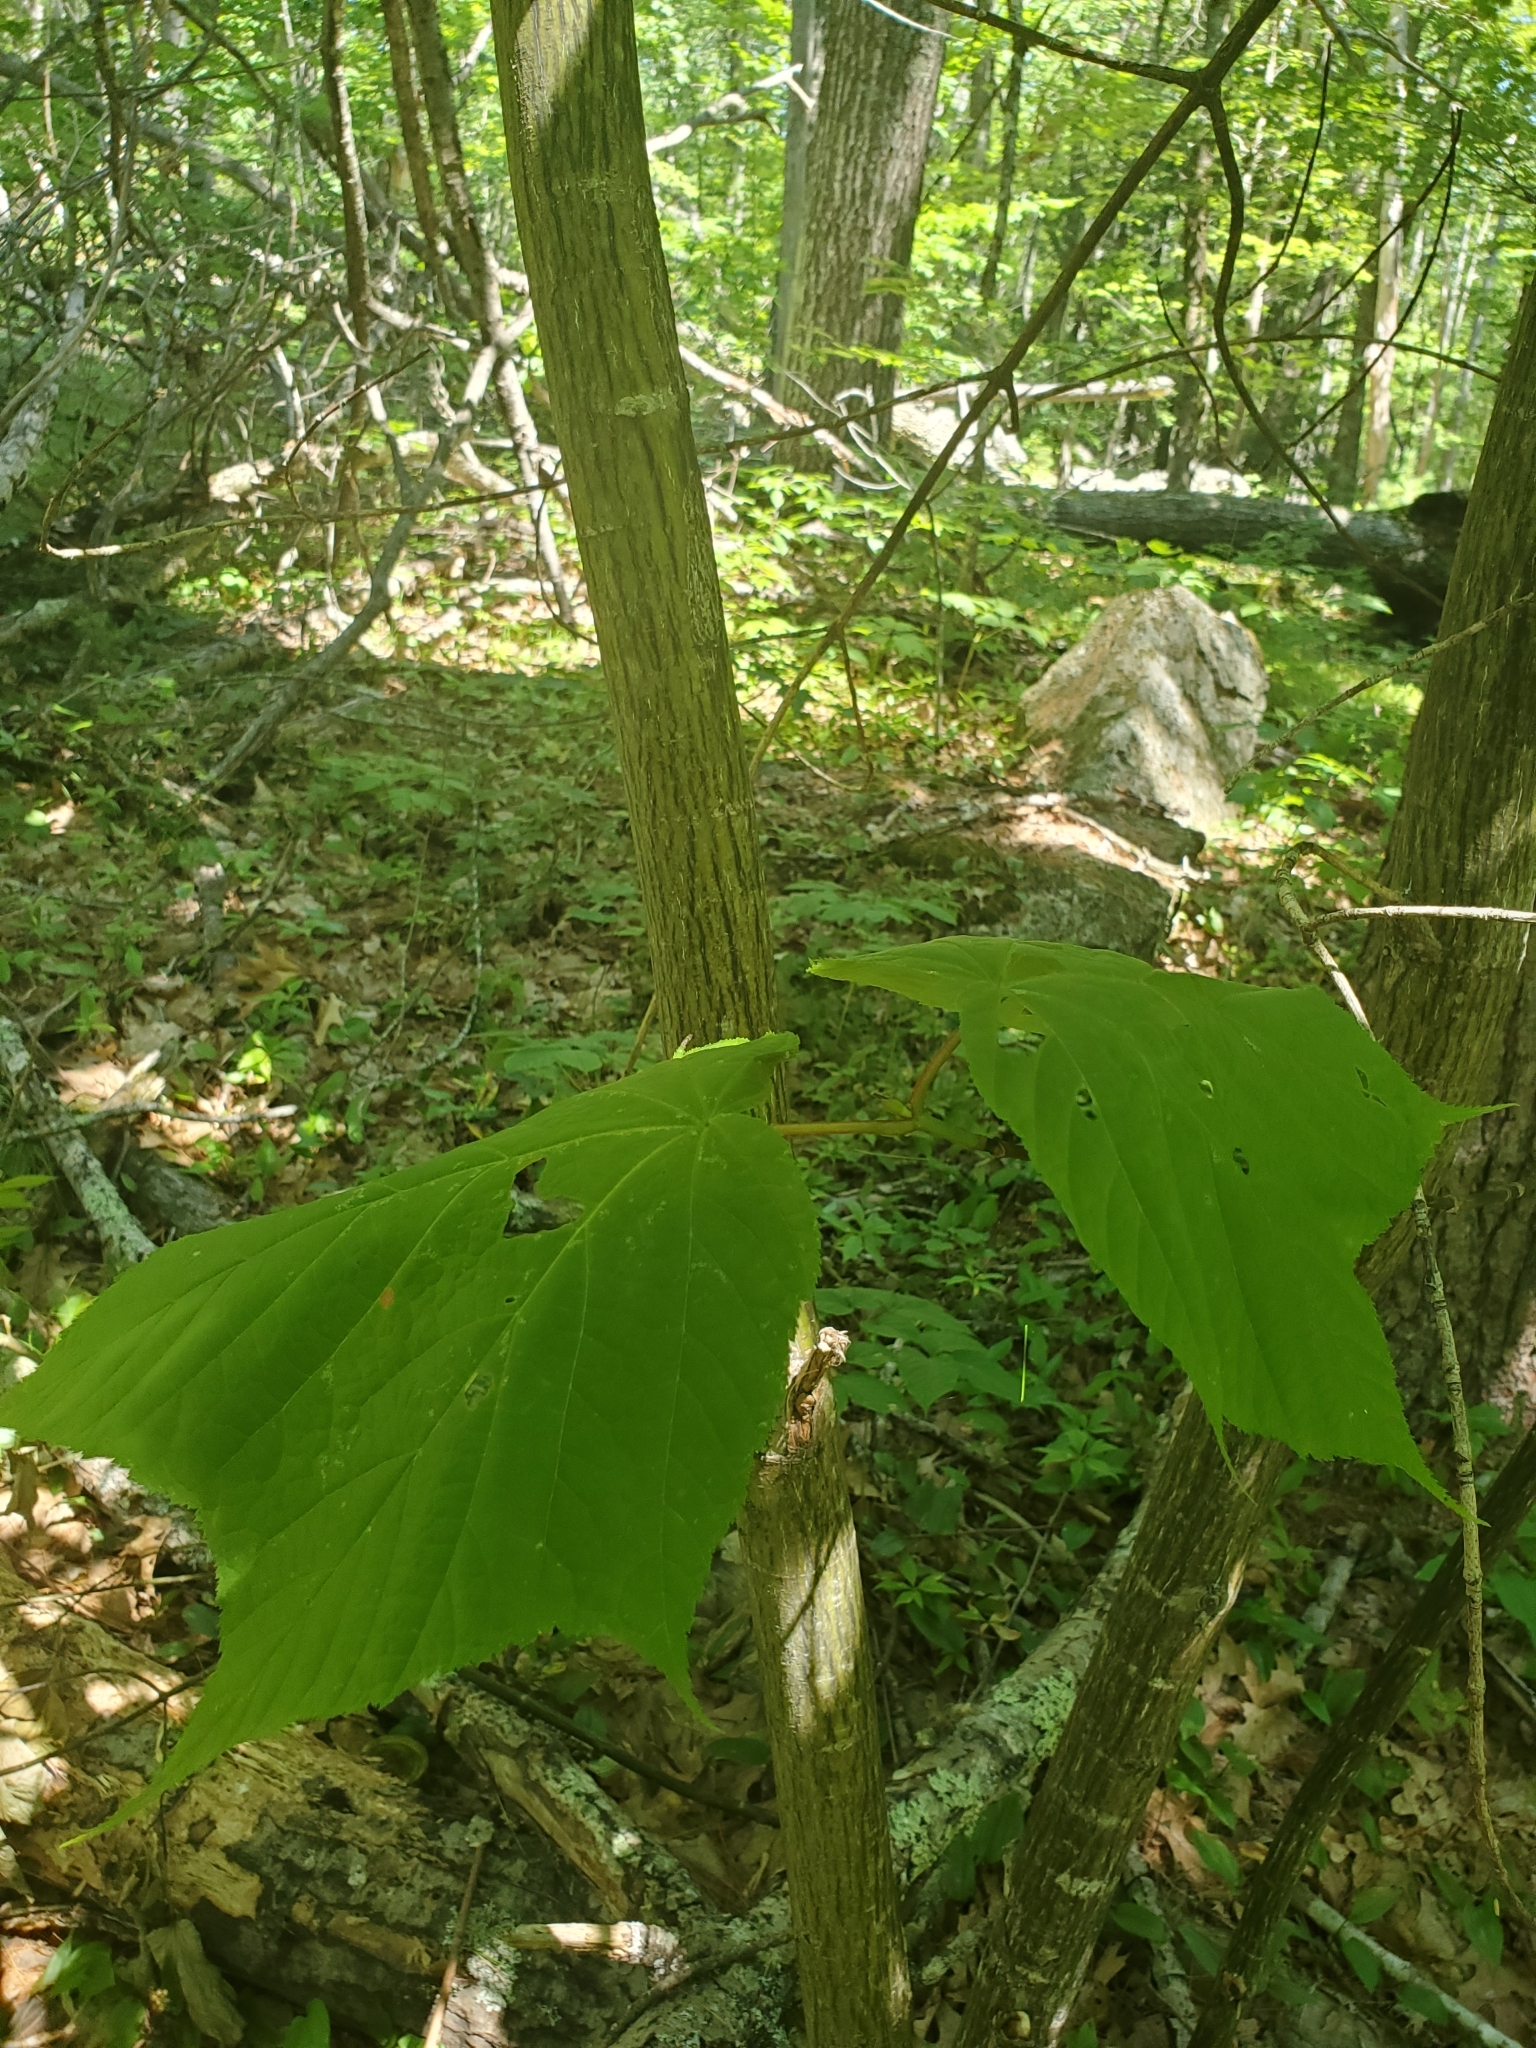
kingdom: Plantae
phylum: Tracheophyta
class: Magnoliopsida
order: Sapindales
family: Sapindaceae
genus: Acer
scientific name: Acer pensylvanicum
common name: Moosewood
